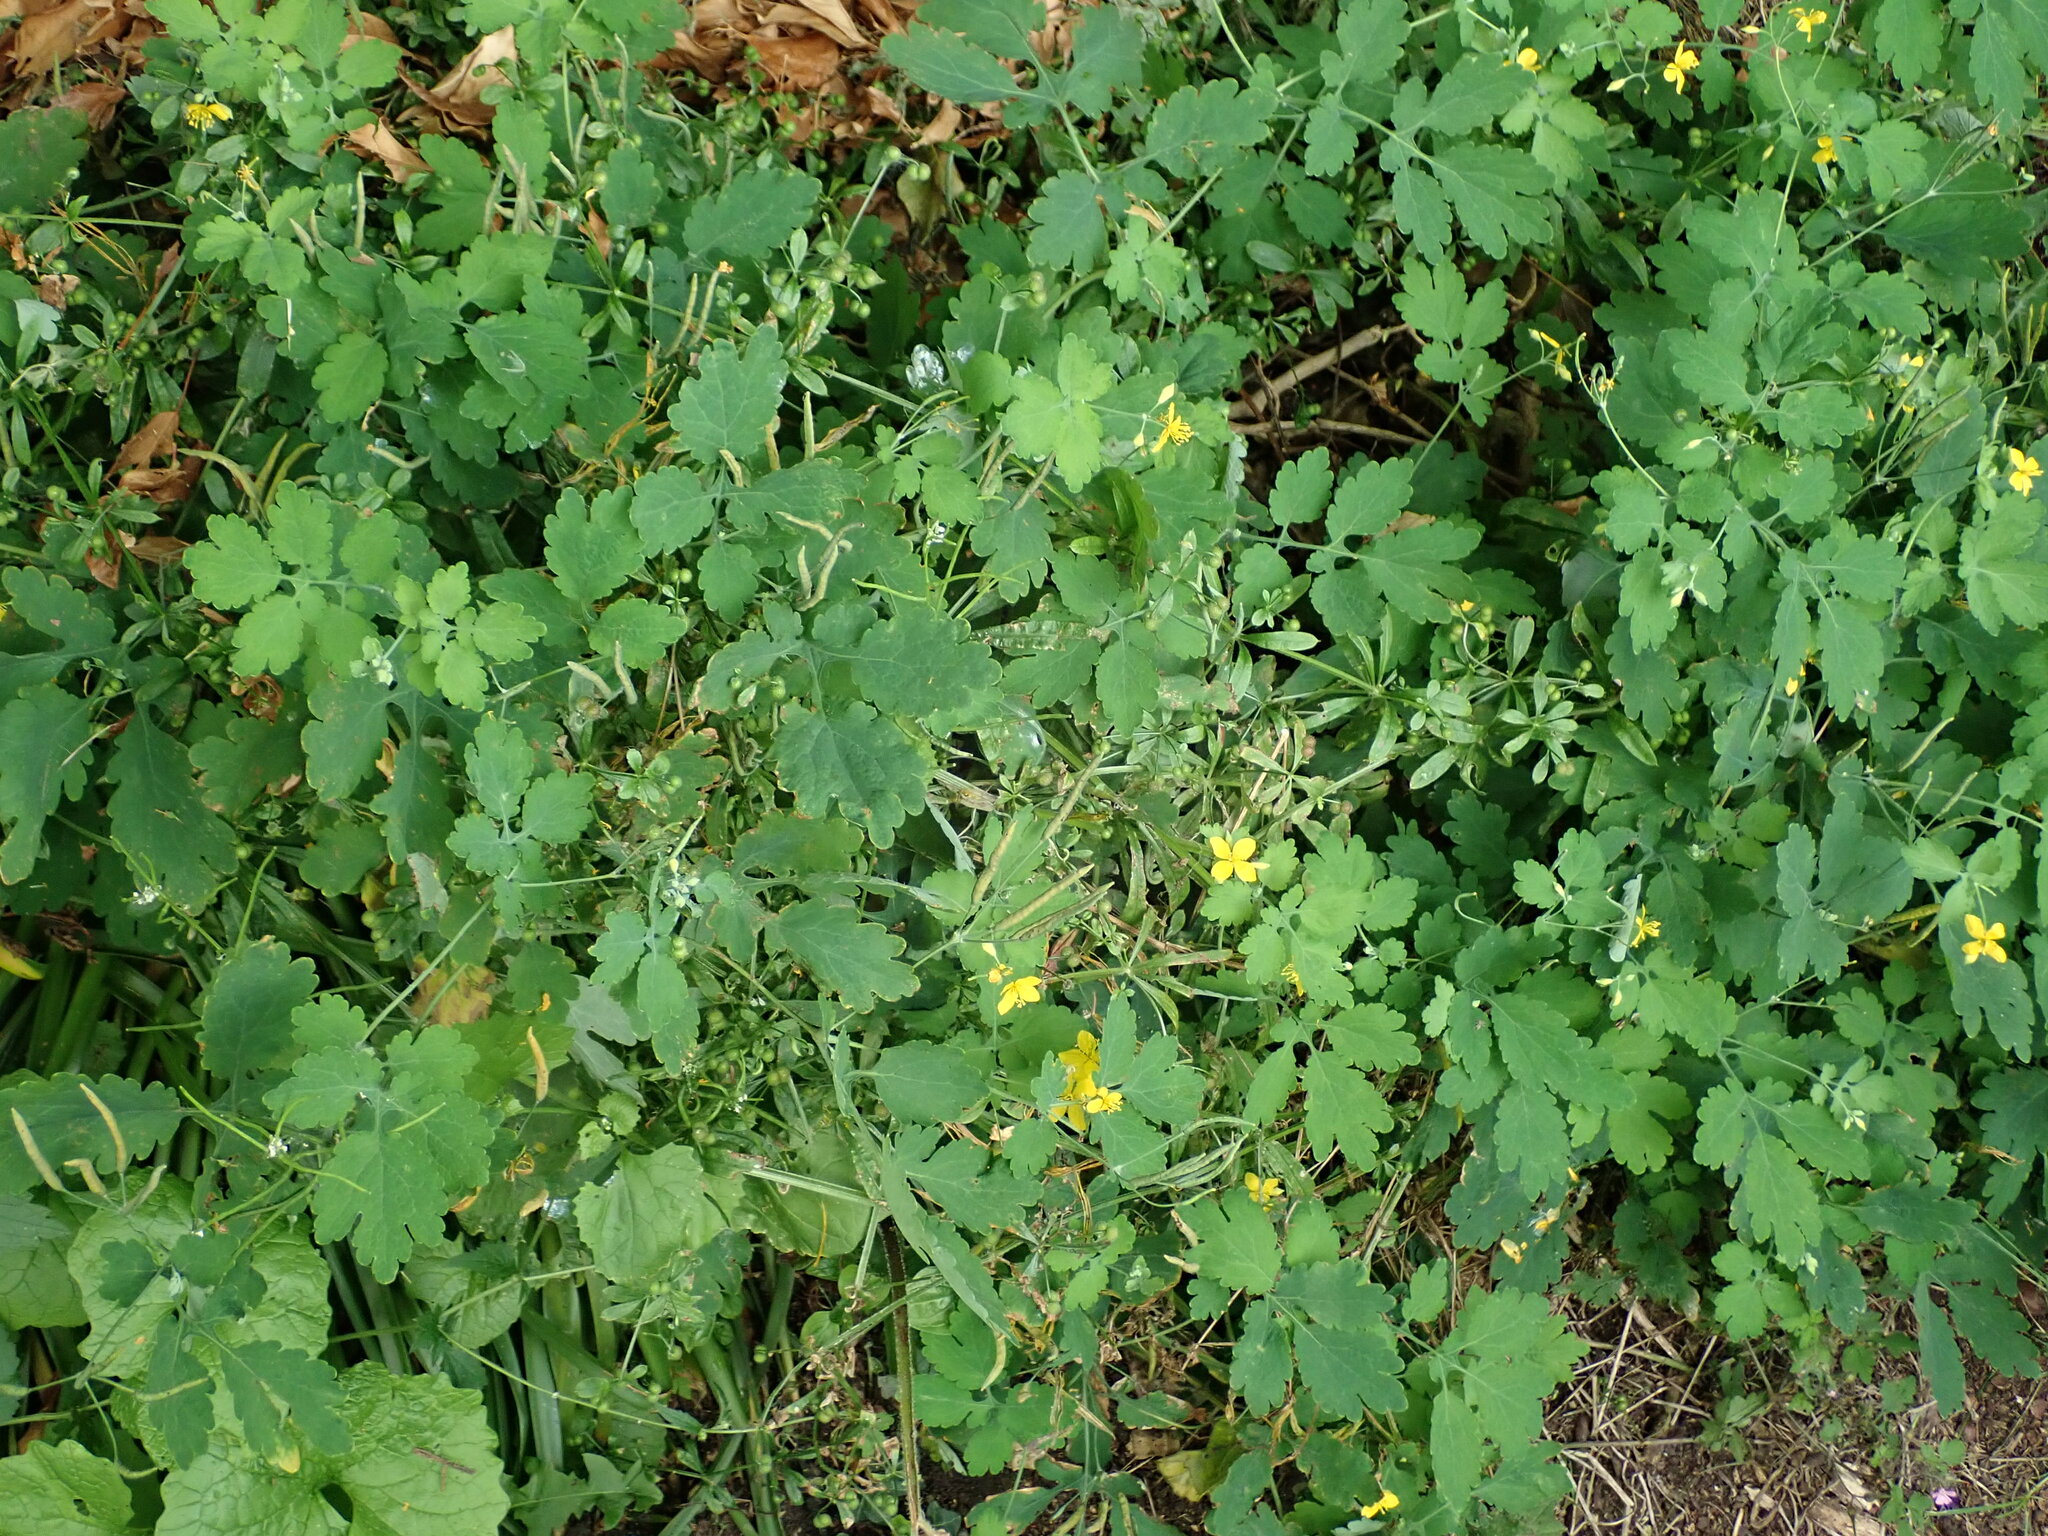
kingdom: Plantae
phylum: Tracheophyta
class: Magnoliopsida
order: Ranunculales
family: Papaveraceae
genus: Chelidonium
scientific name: Chelidonium majus
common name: Greater celandine
